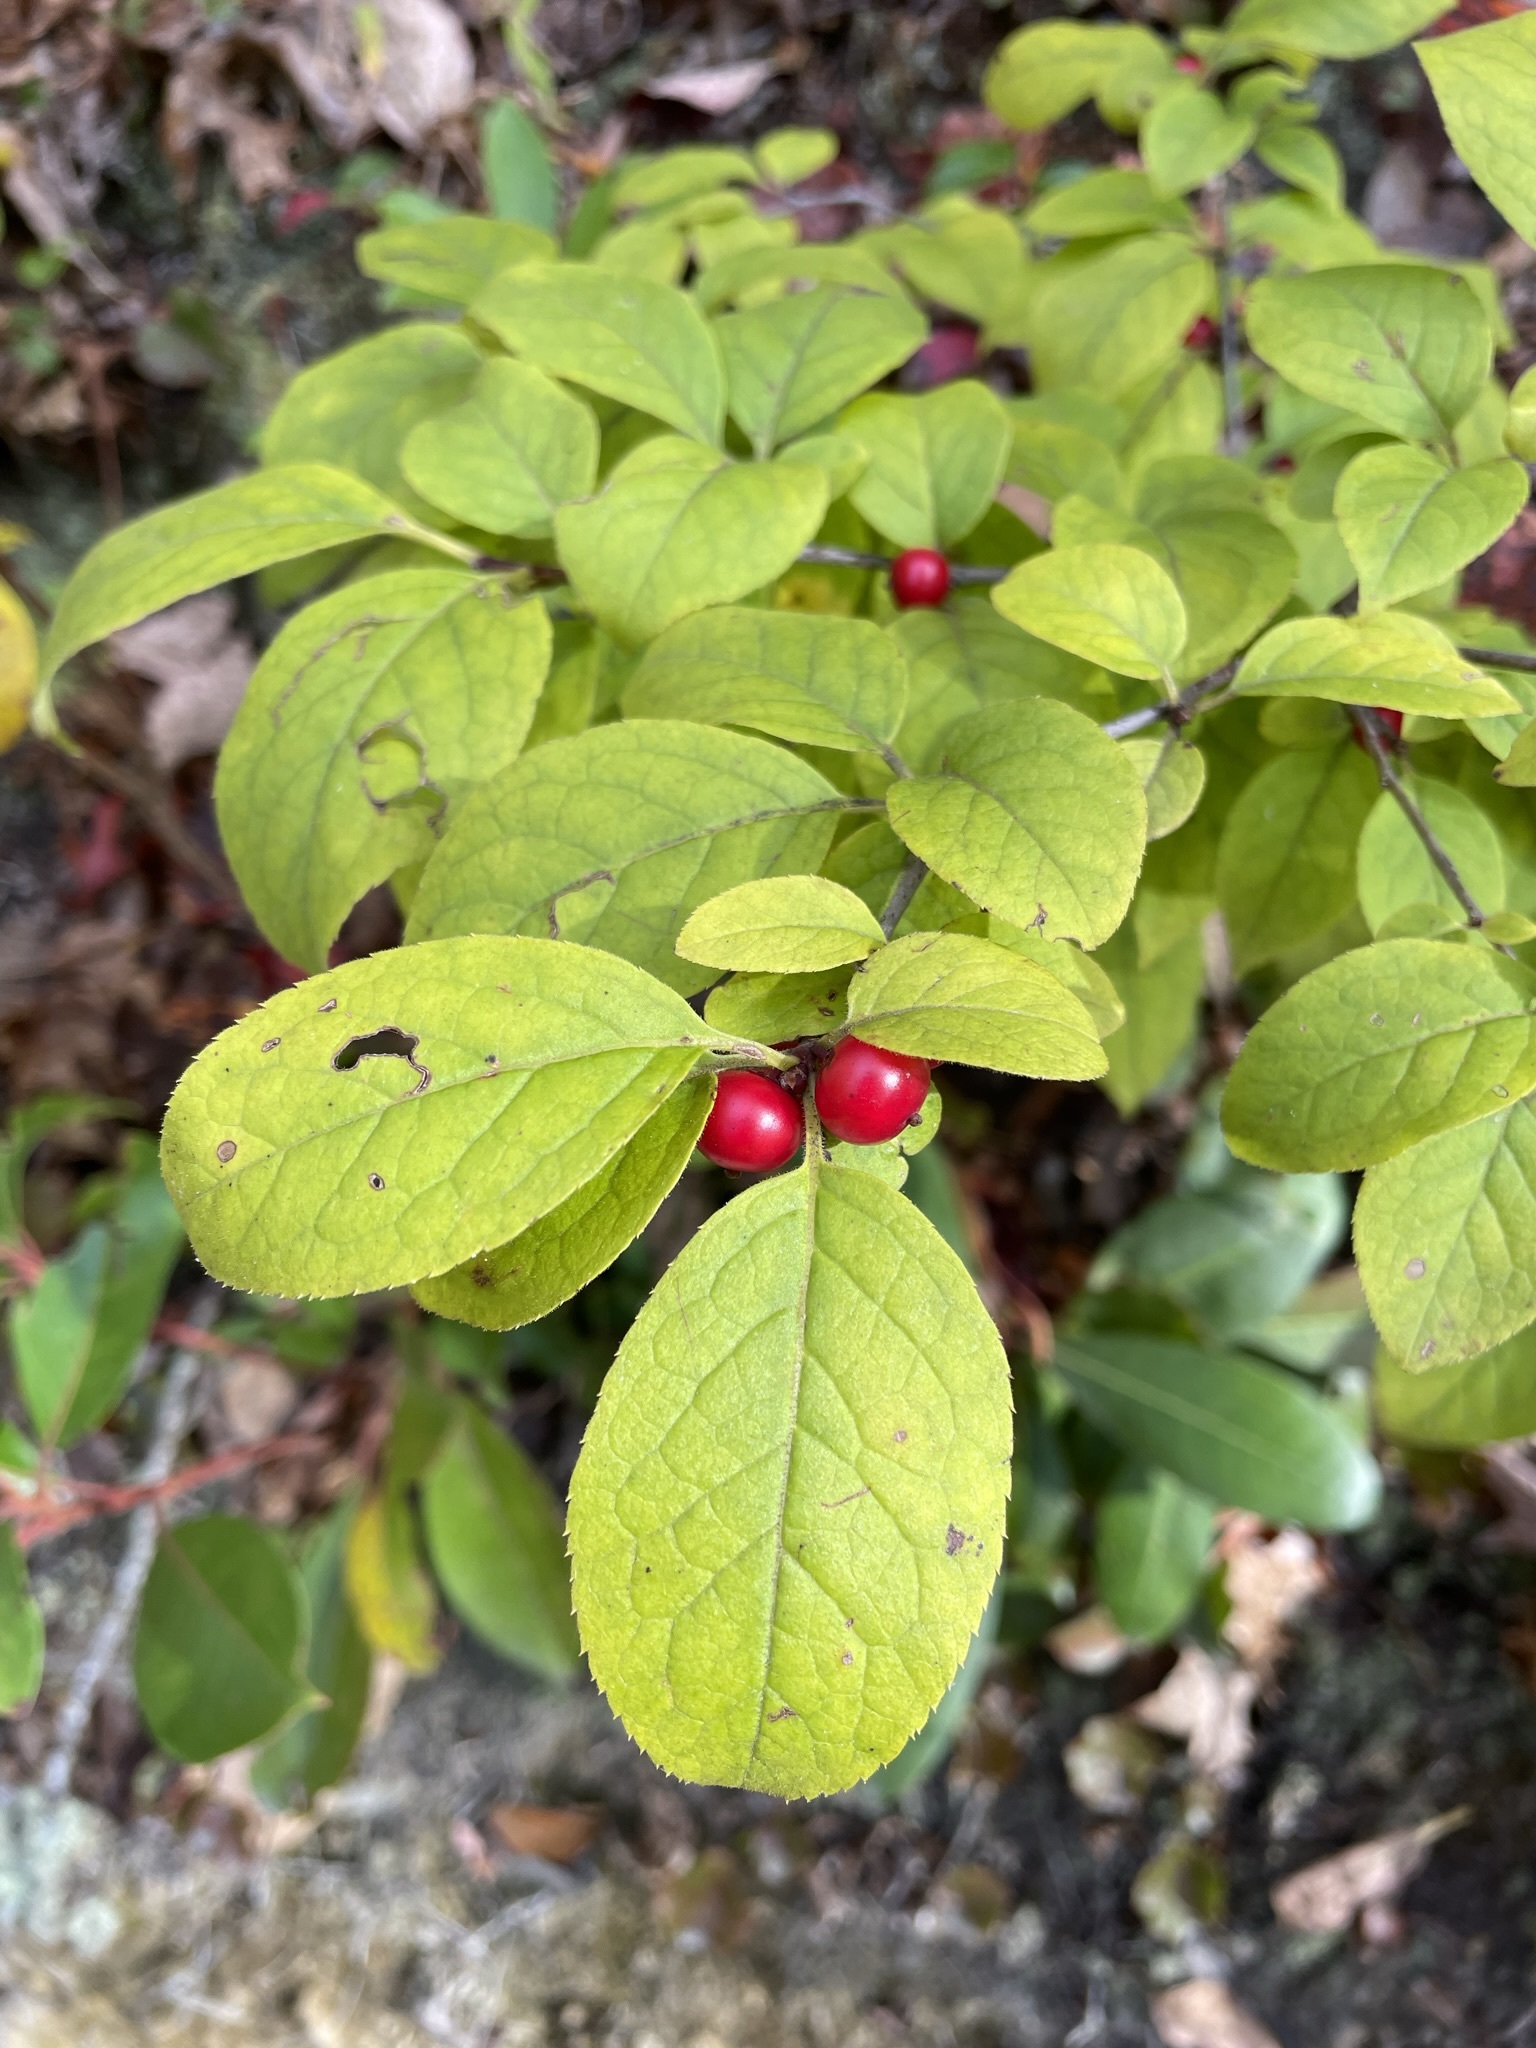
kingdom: Plantae
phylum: Tracheophyta
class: Magnoliopsida
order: Aquifoliales
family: Aquifoliaceae
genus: Ilex
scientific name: Ilex montana
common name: Mountain winterberry
